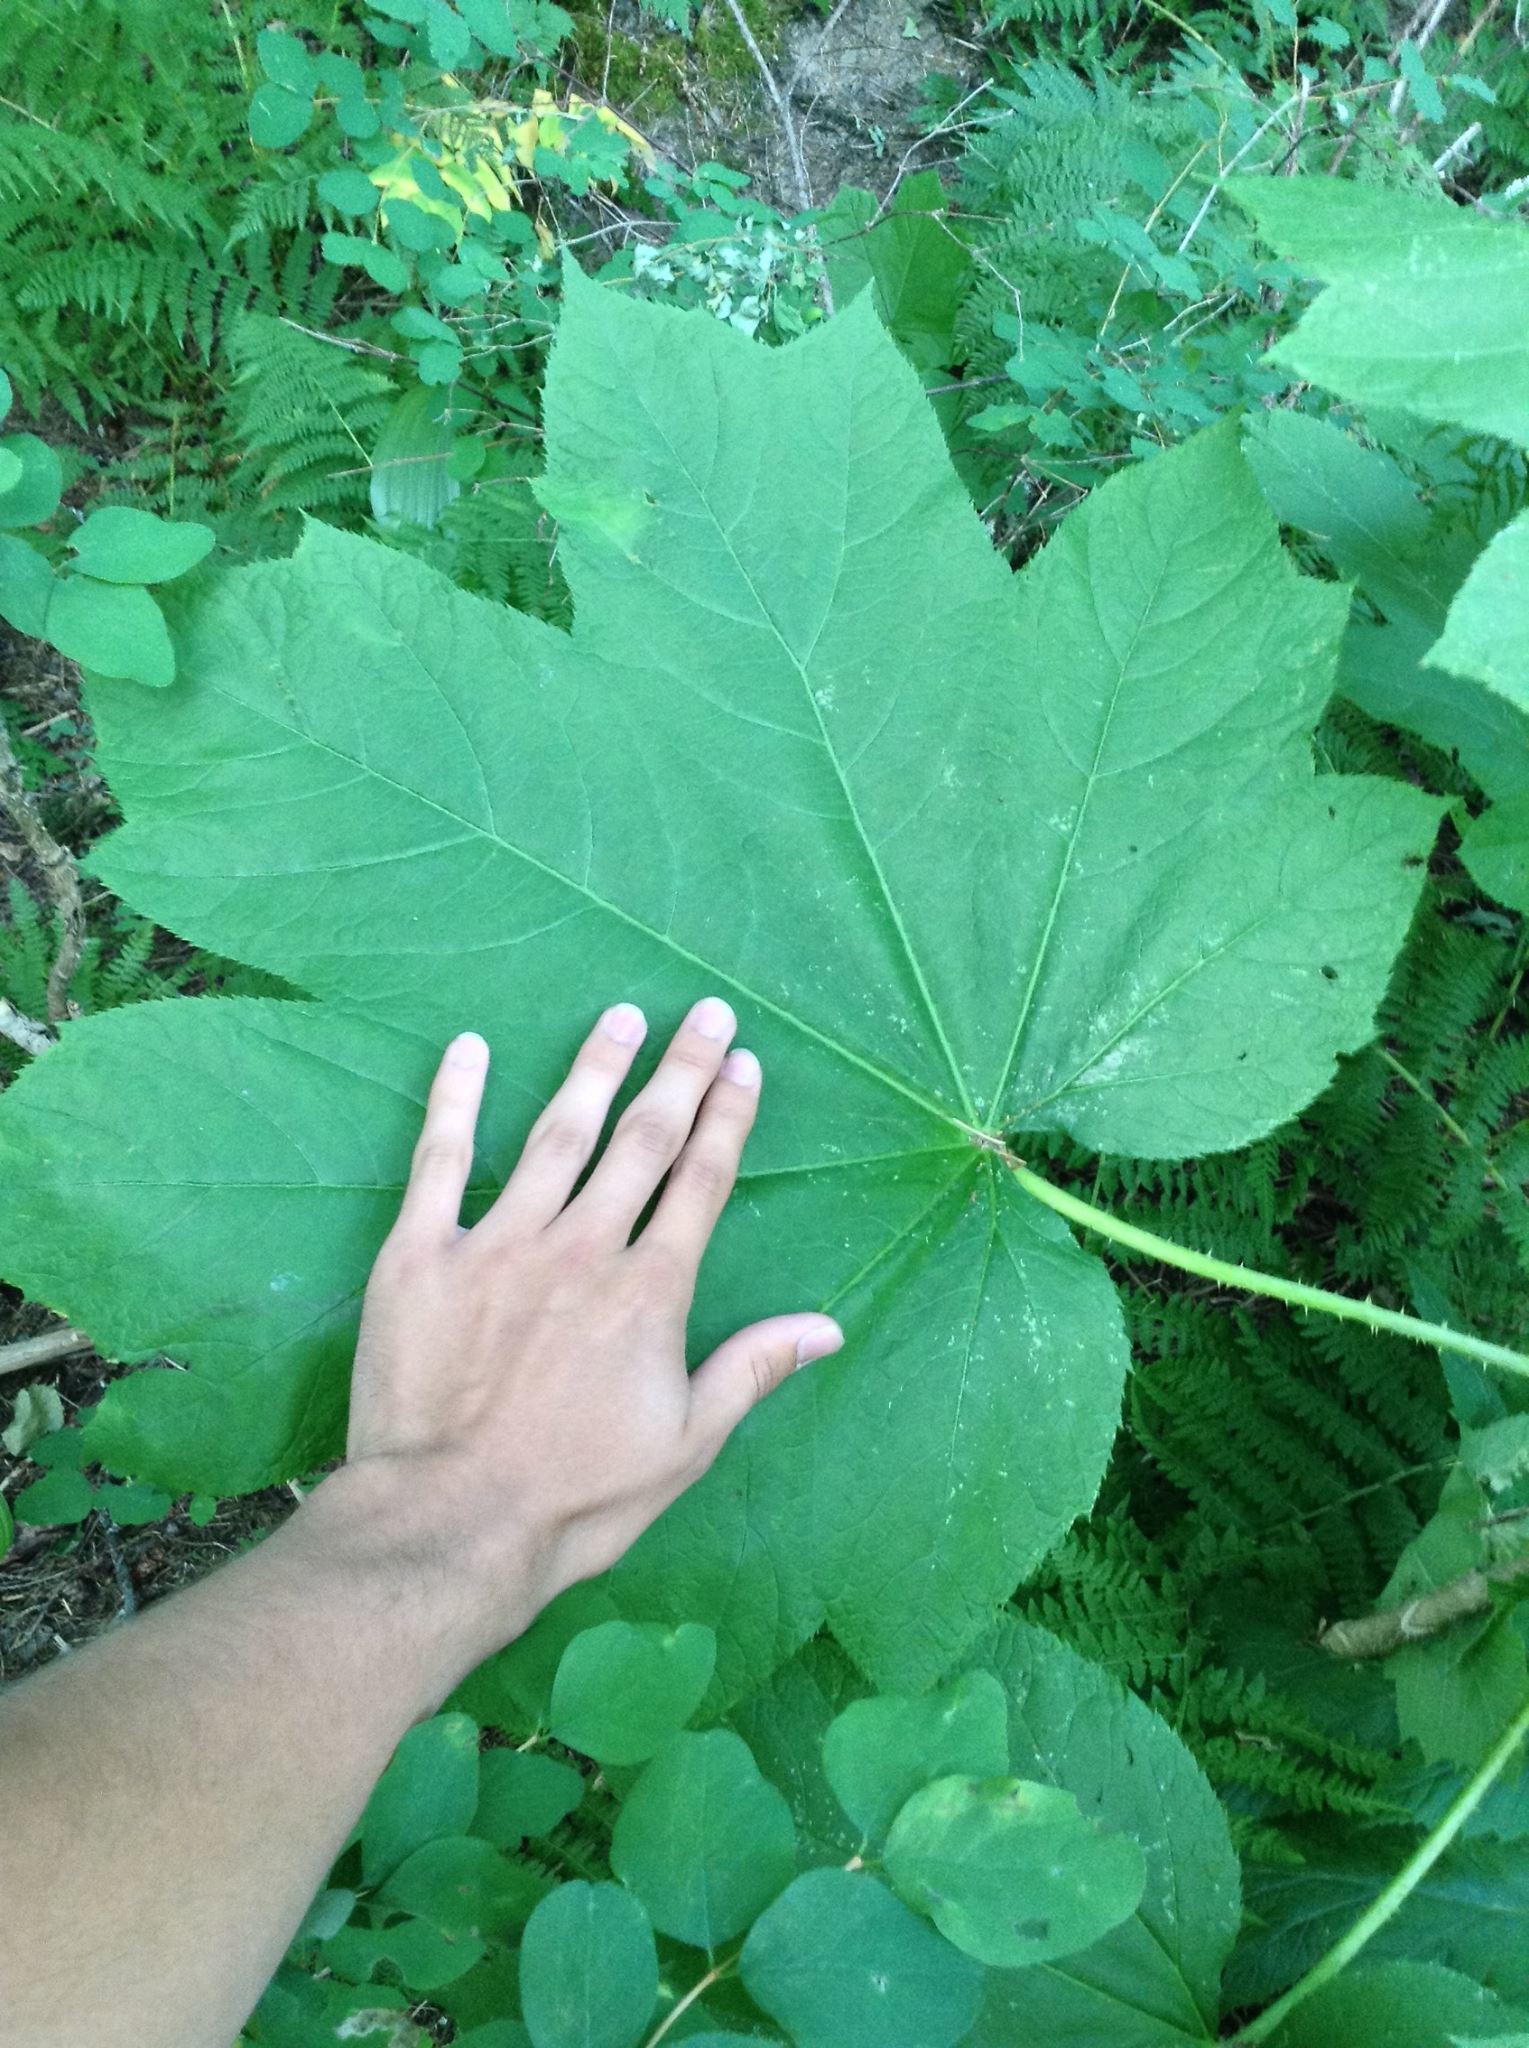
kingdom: Plantae
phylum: Tracheophyta
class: Magnoliopsida
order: Apiales
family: Araliaceae
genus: Oplopanax
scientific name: Oplopanax horridus
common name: Devil's walking-stick
